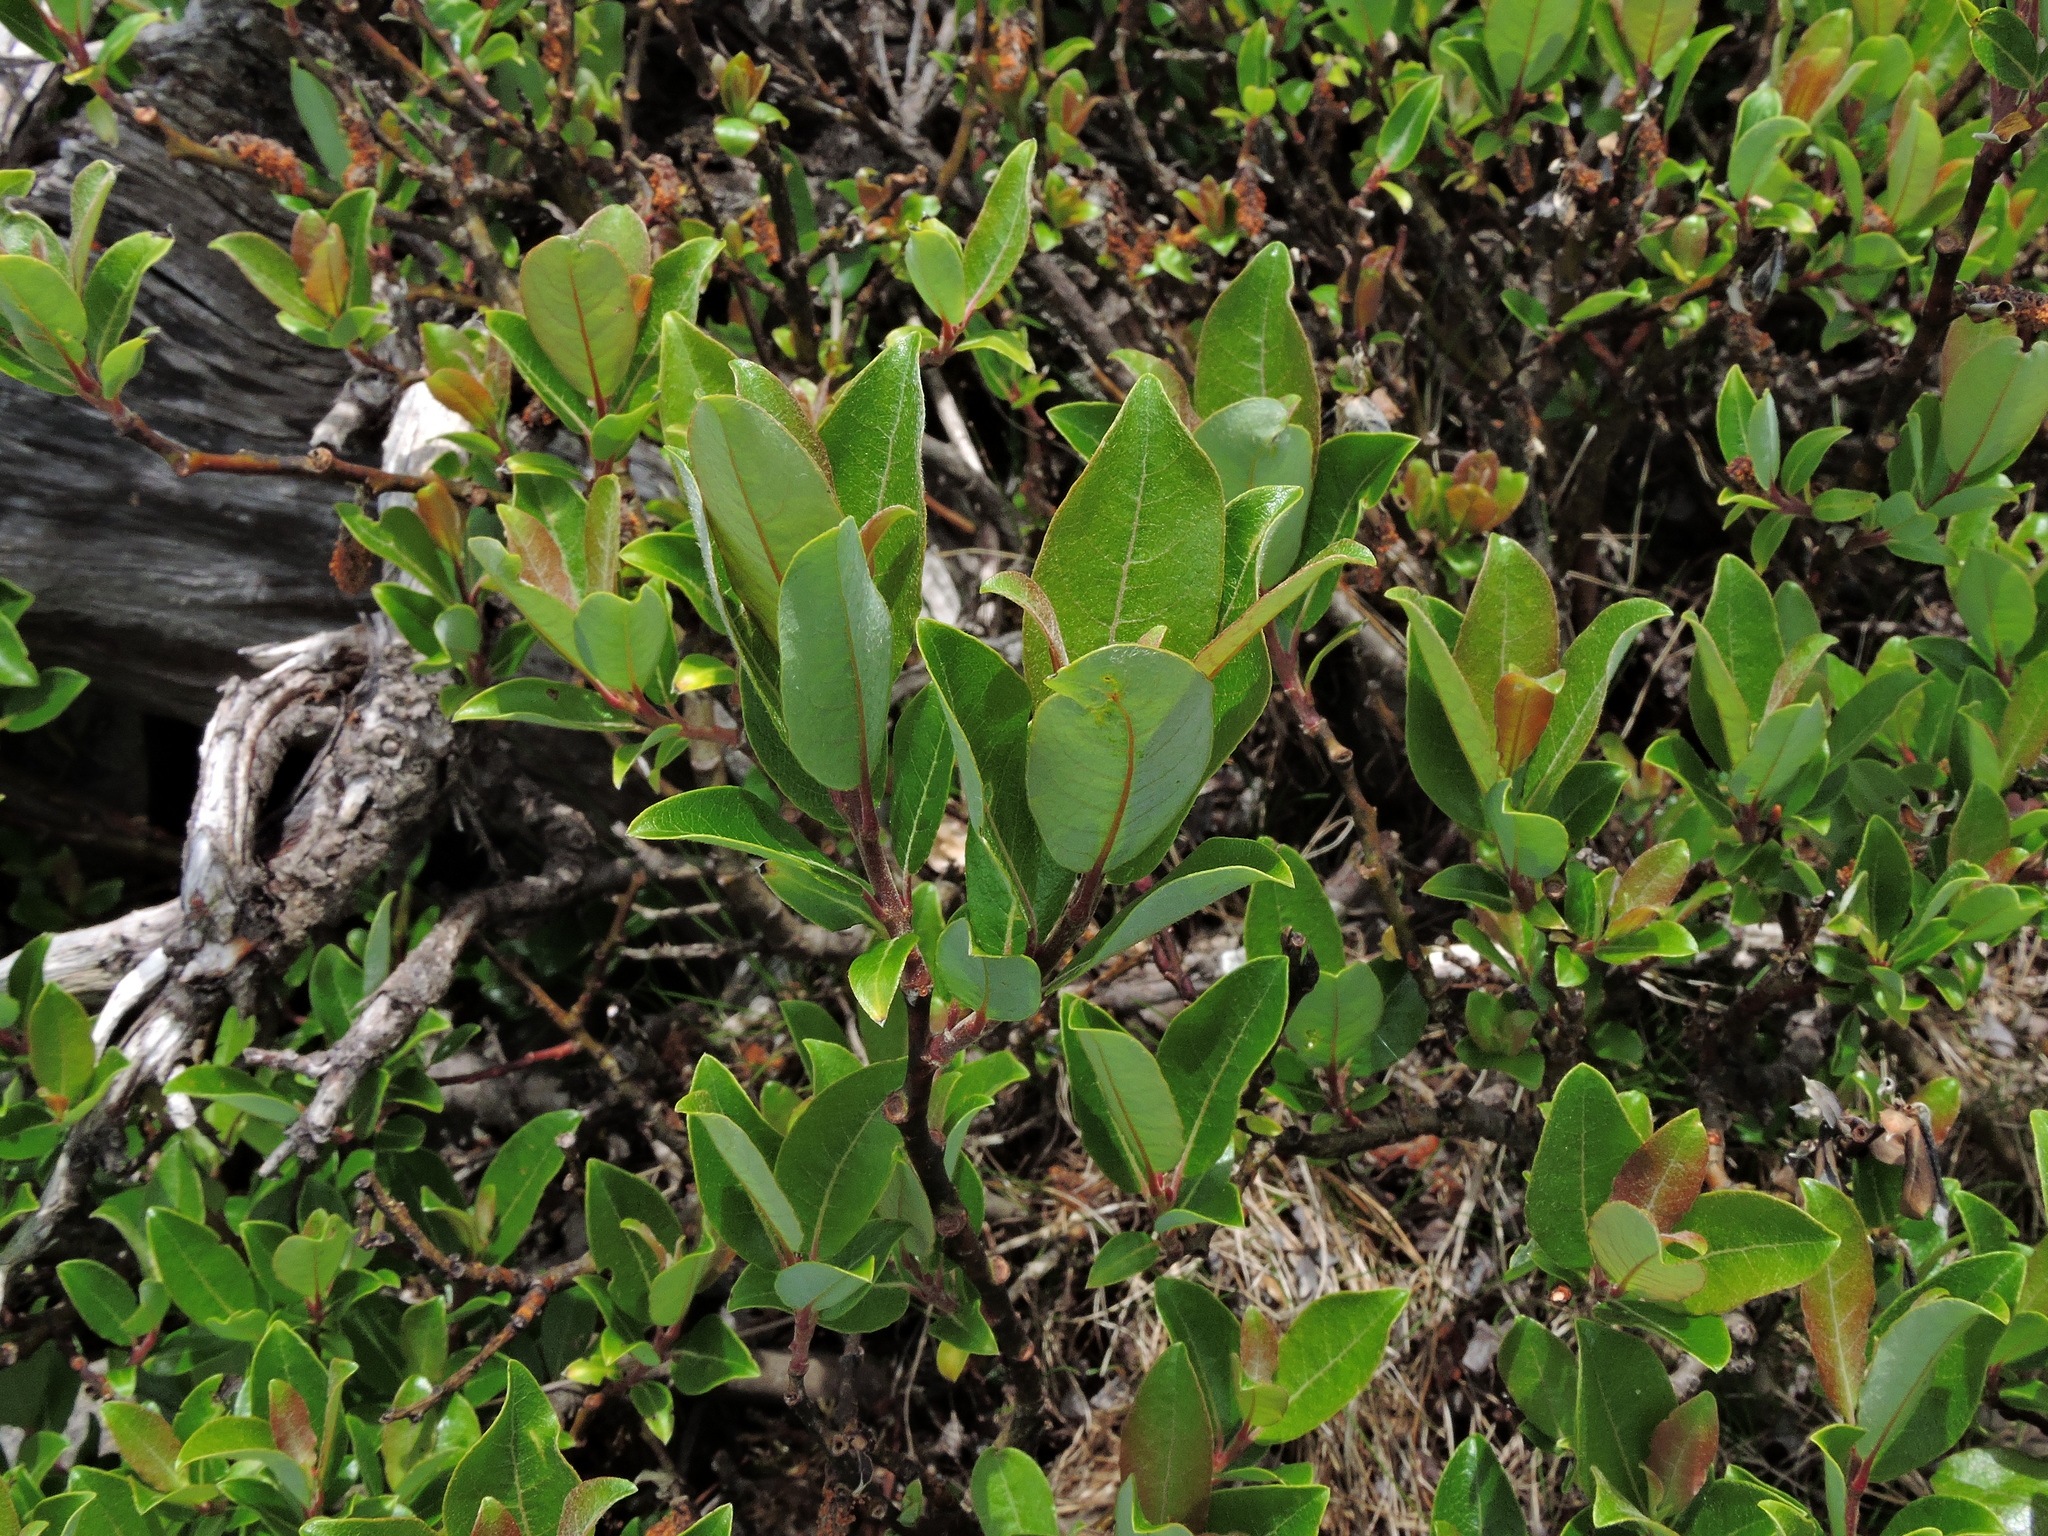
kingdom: Plantae
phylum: Tracheophyta
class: Magnoliopsida
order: Malpighiales
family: Salicaceae
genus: Salix
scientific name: Salix taiwanalpina
